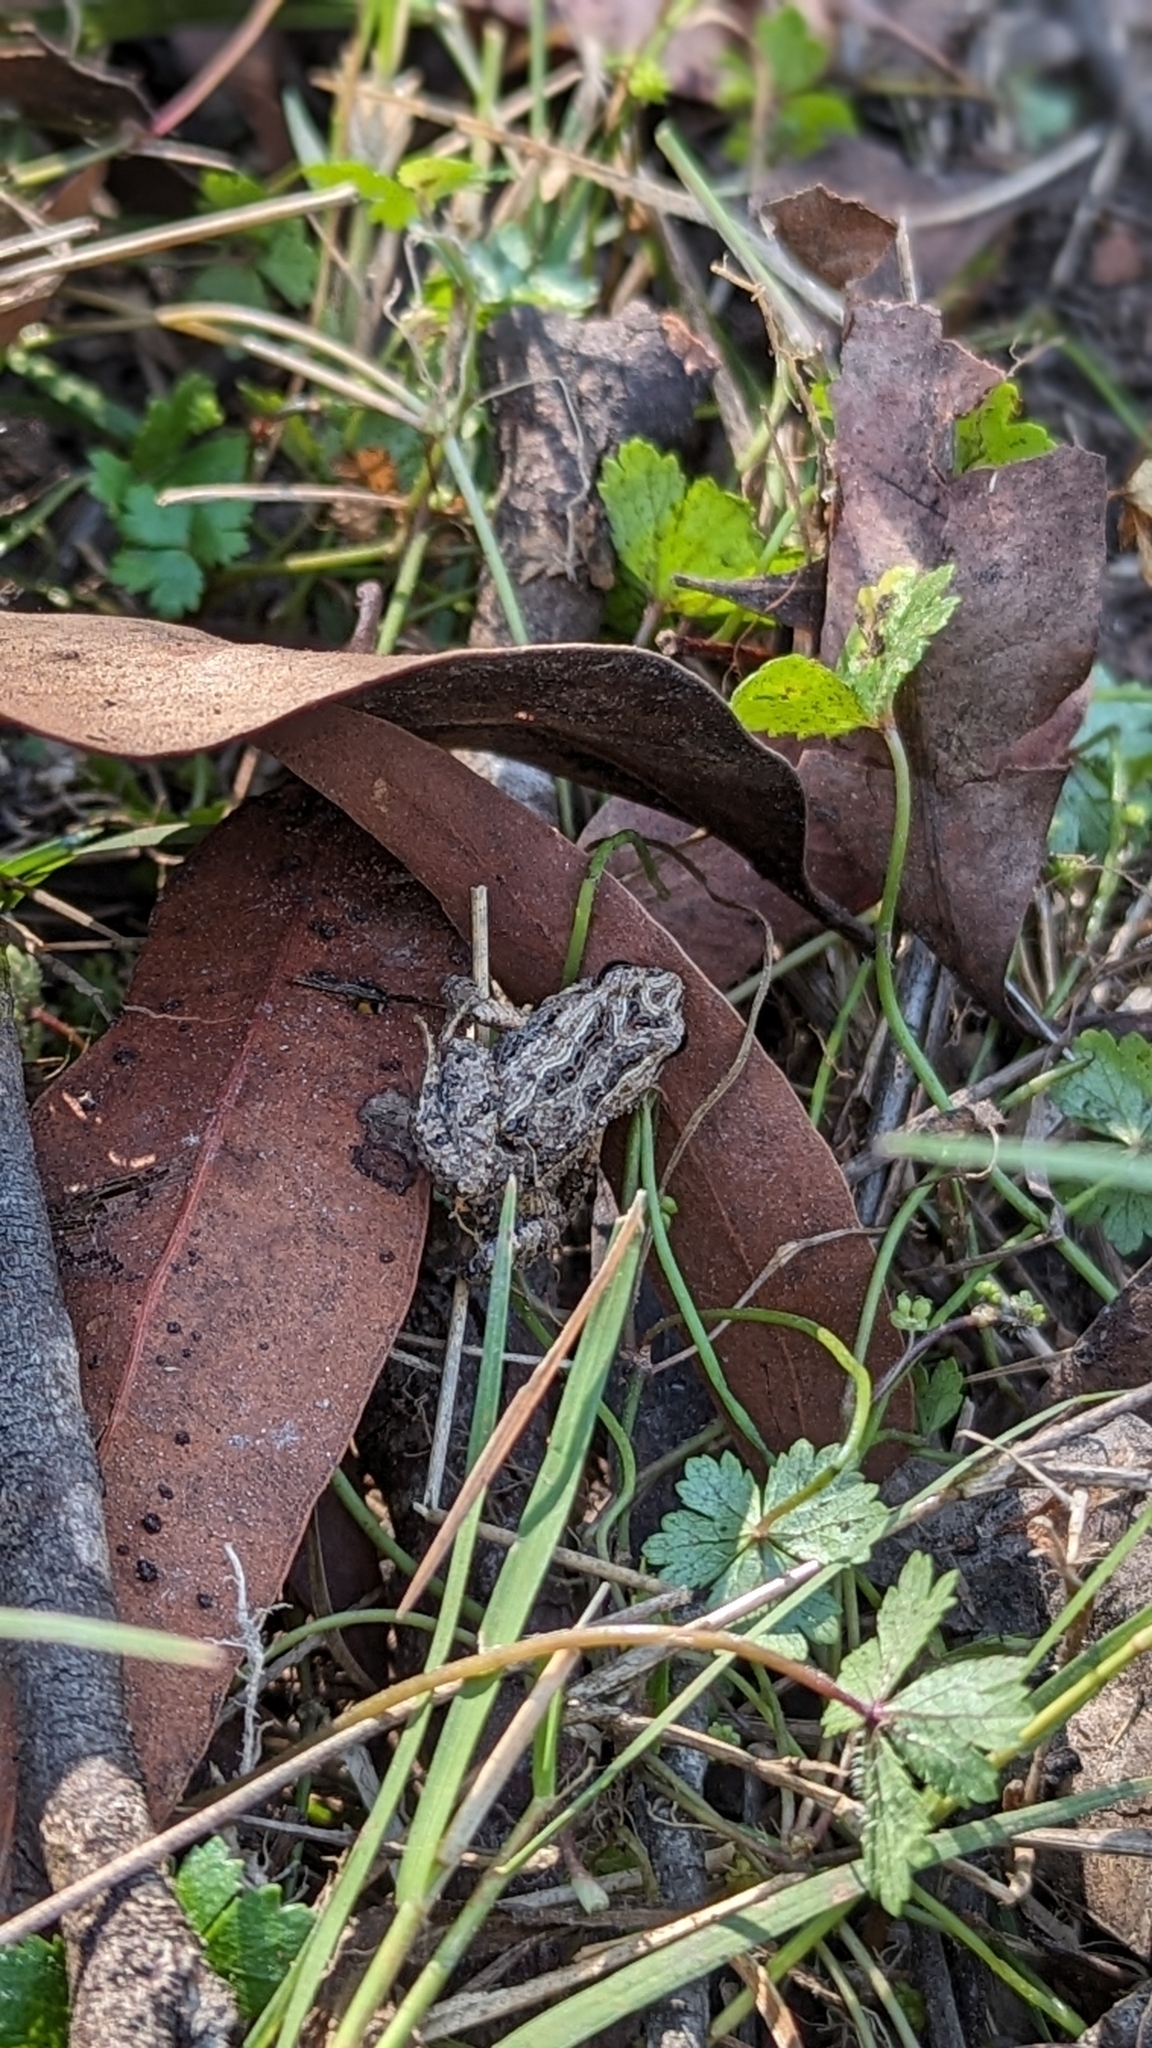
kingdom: Animalia
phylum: Chordata
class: Amphibia
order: Anura
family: Myobatrachidae
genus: Crinia
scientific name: Crinia signifera
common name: Brown froglet
